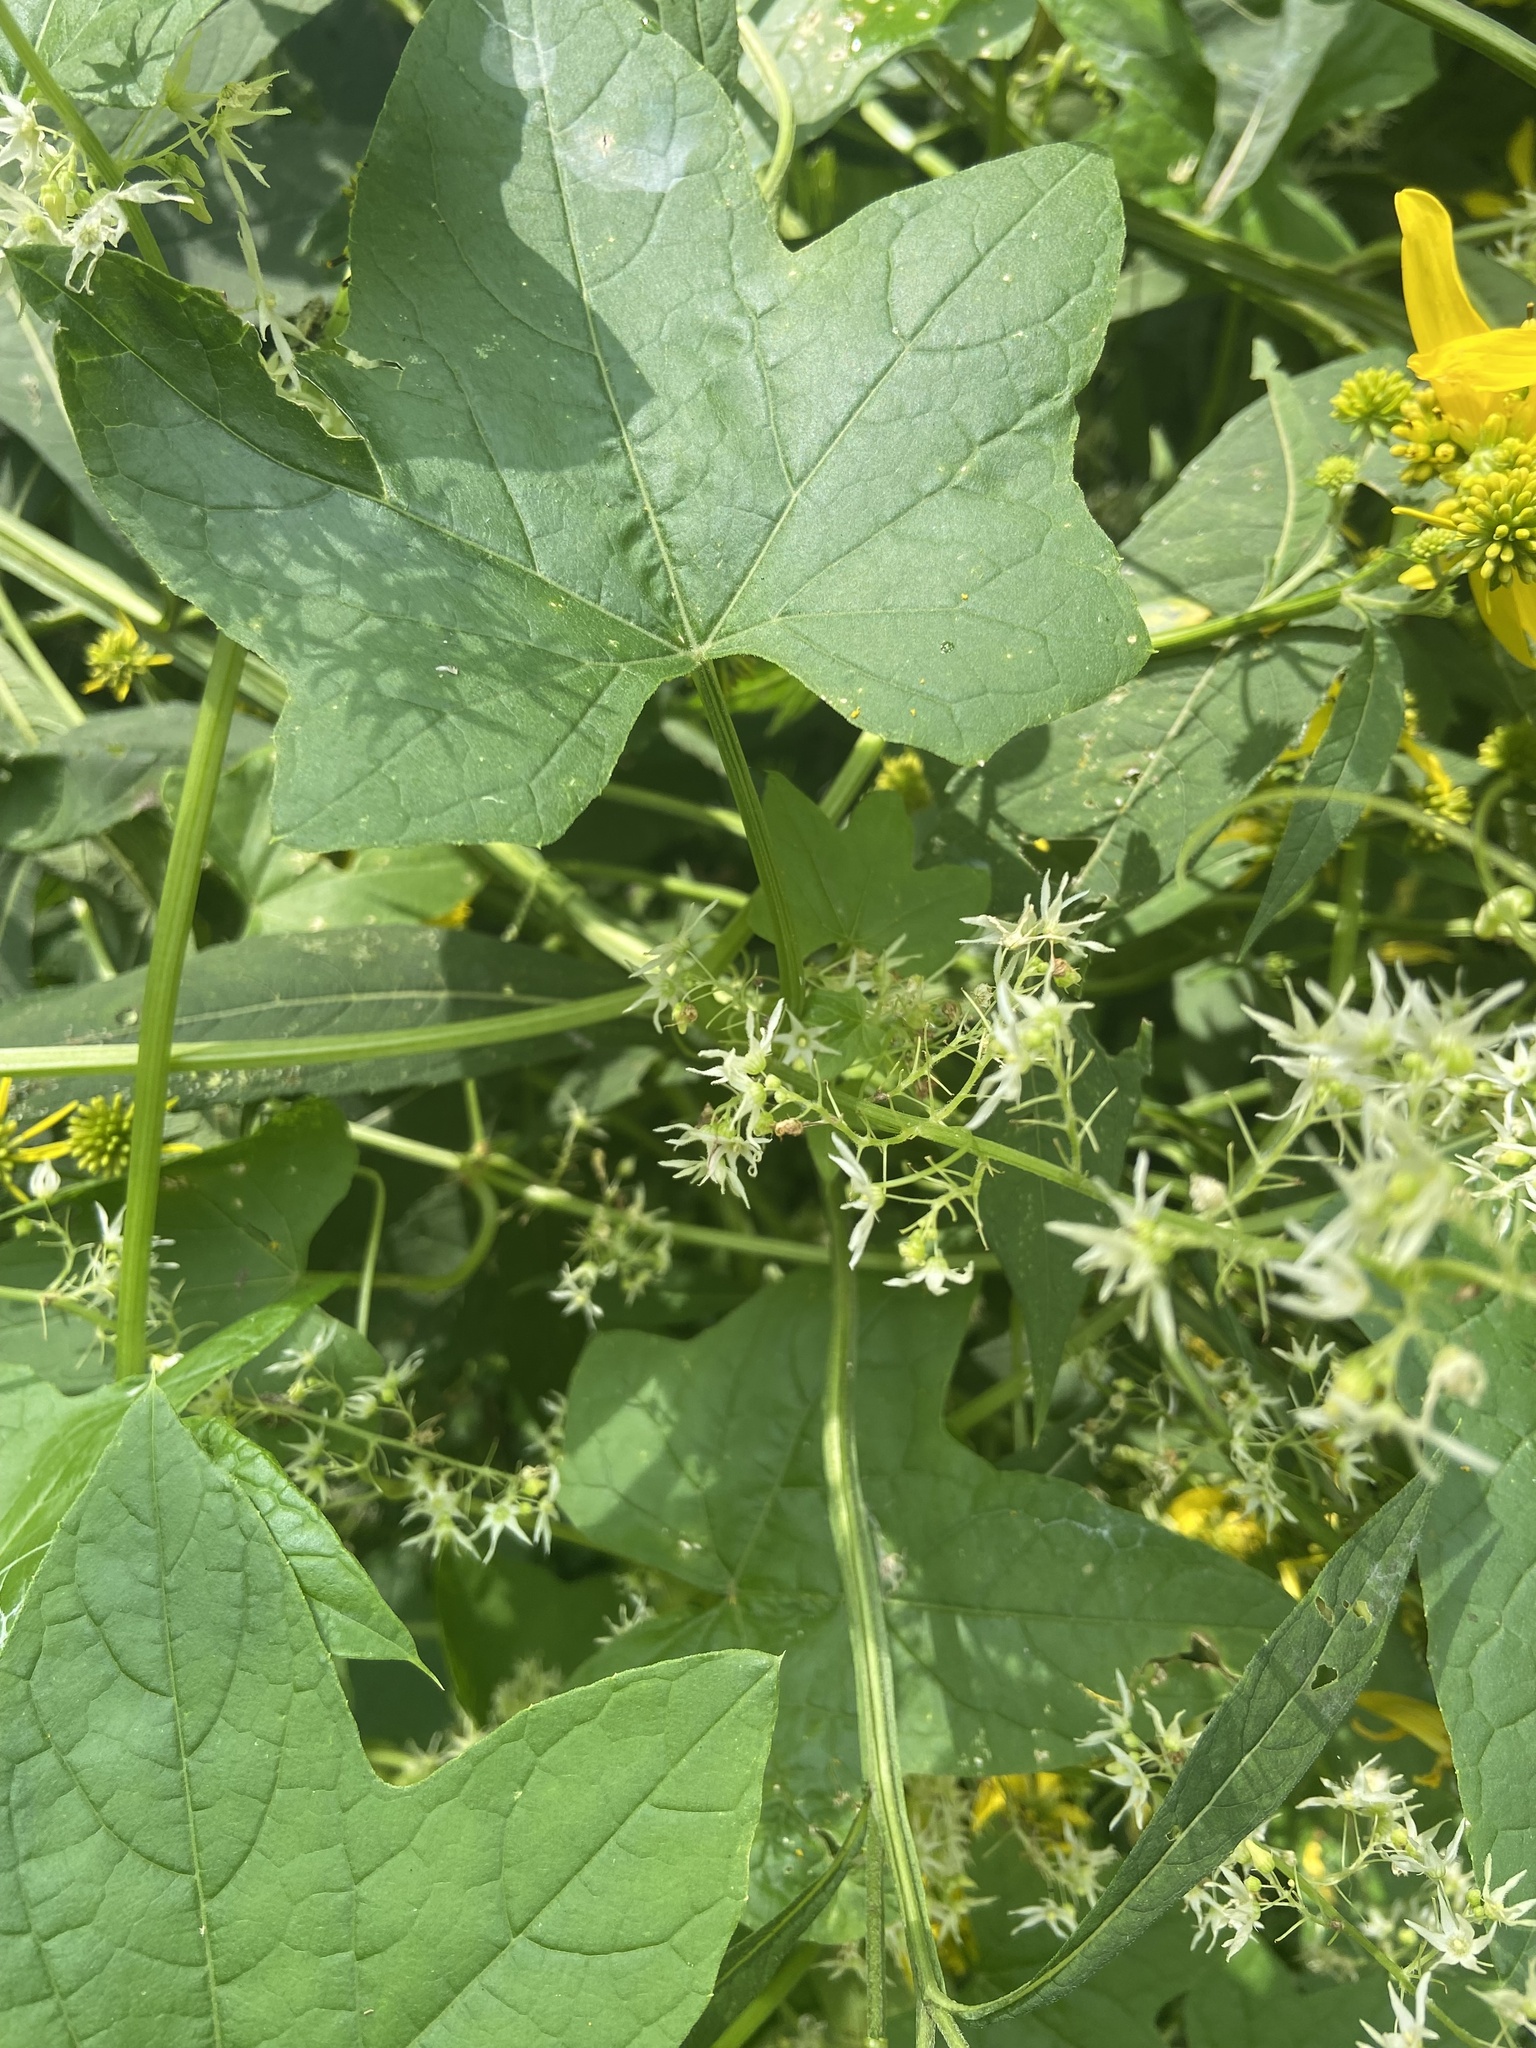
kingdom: Plantae
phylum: Tracheophyta
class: Magnoliopsida
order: Cucurbitales
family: Cucurbitaceae
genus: Echinocystis
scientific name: Echinocystis lobata
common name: Wild cucumber
